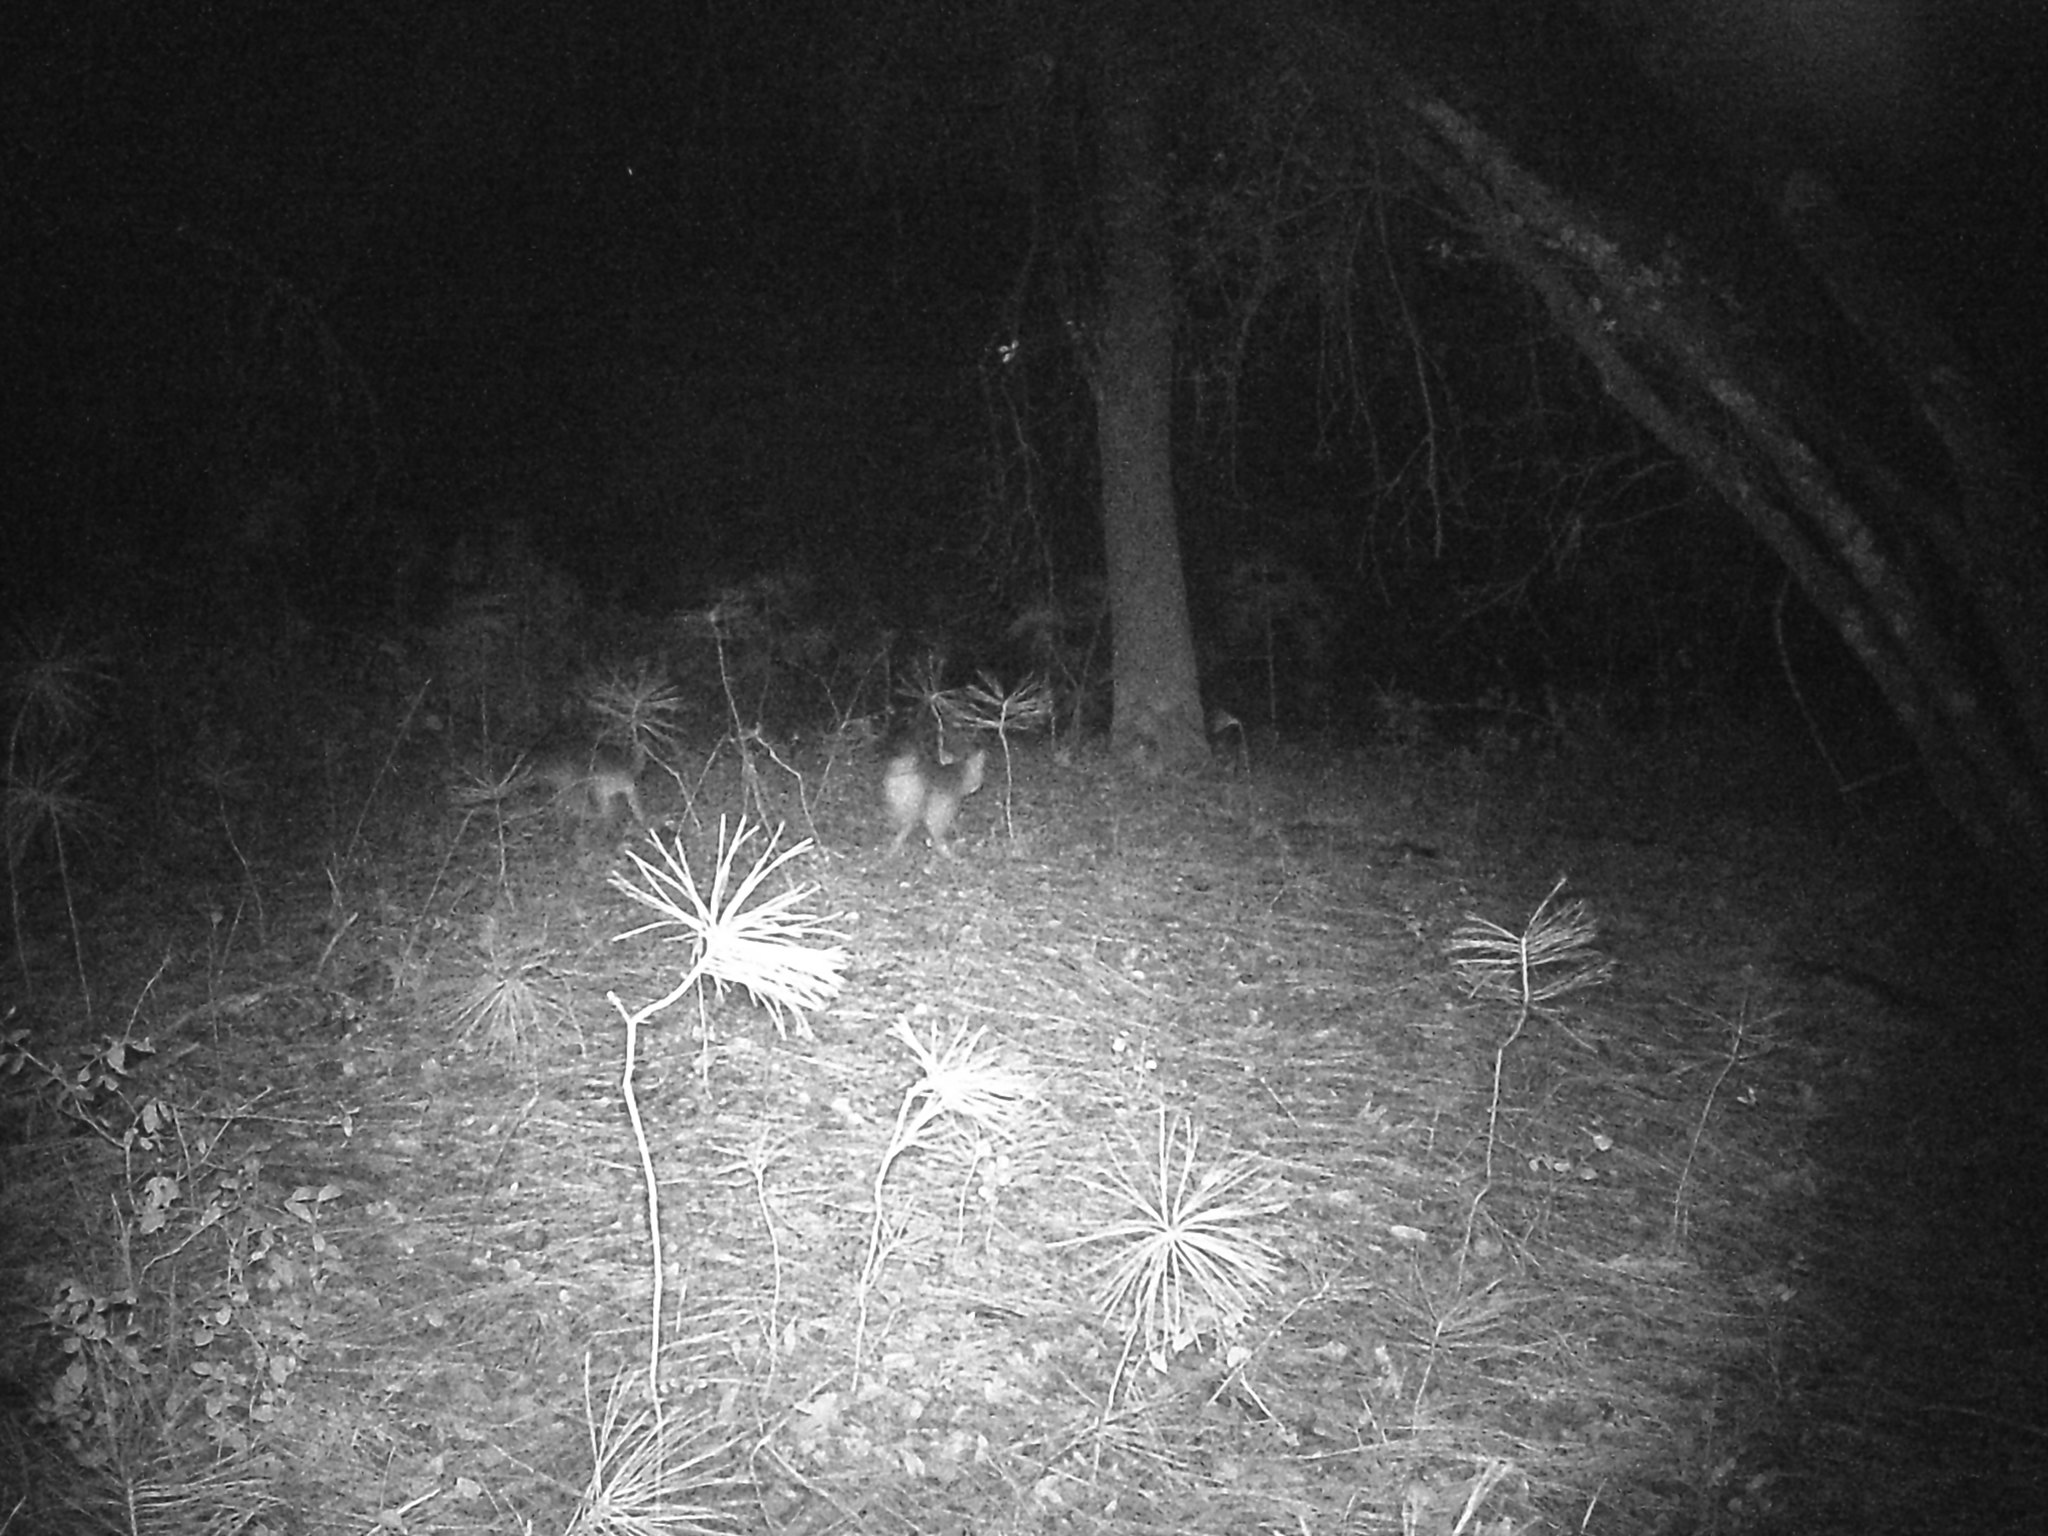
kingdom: Animalia
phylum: Chordata
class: Mammalia
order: Carnivora
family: Canidae
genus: Urocyon
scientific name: Urocyon cinereoargenteus
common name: Gray fox
